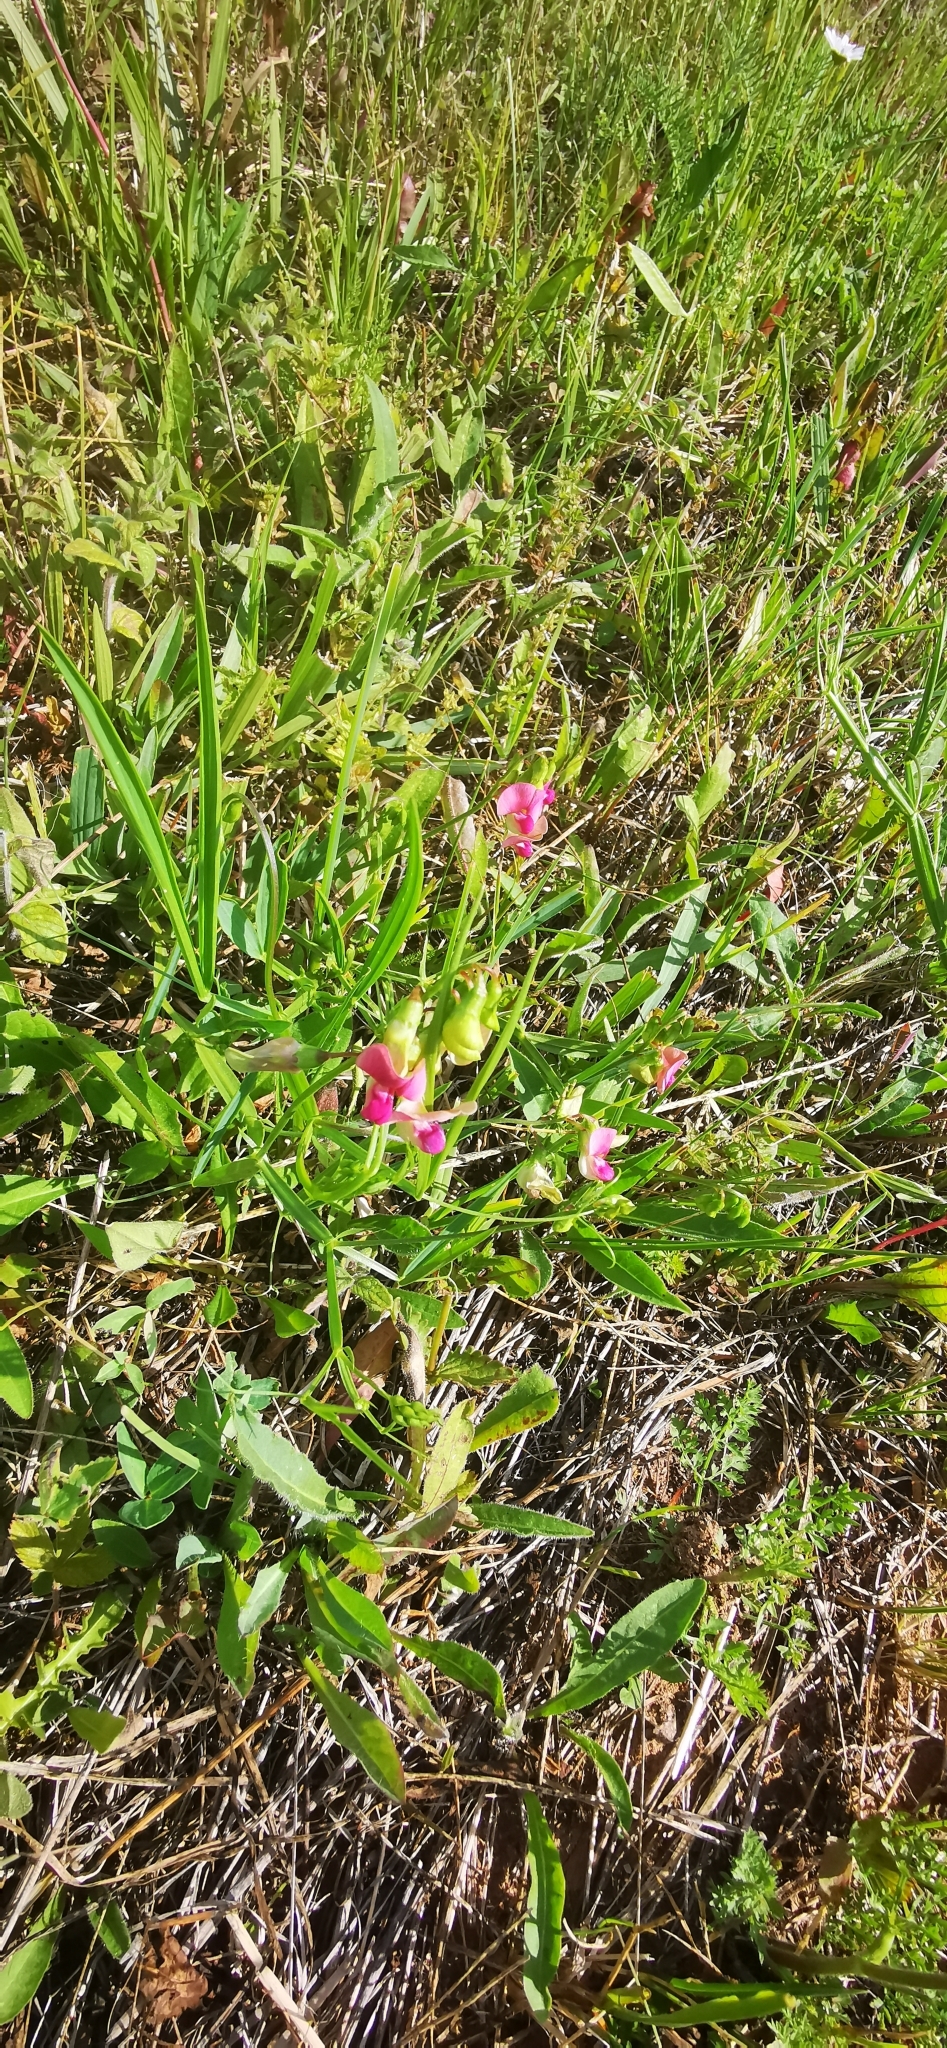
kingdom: Plantae
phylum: Tracheophyta
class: Magnoliopsida
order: Fabales
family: Fabaceae
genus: Lathyrus
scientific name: Lathyrus sylvestris
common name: Flat pea
